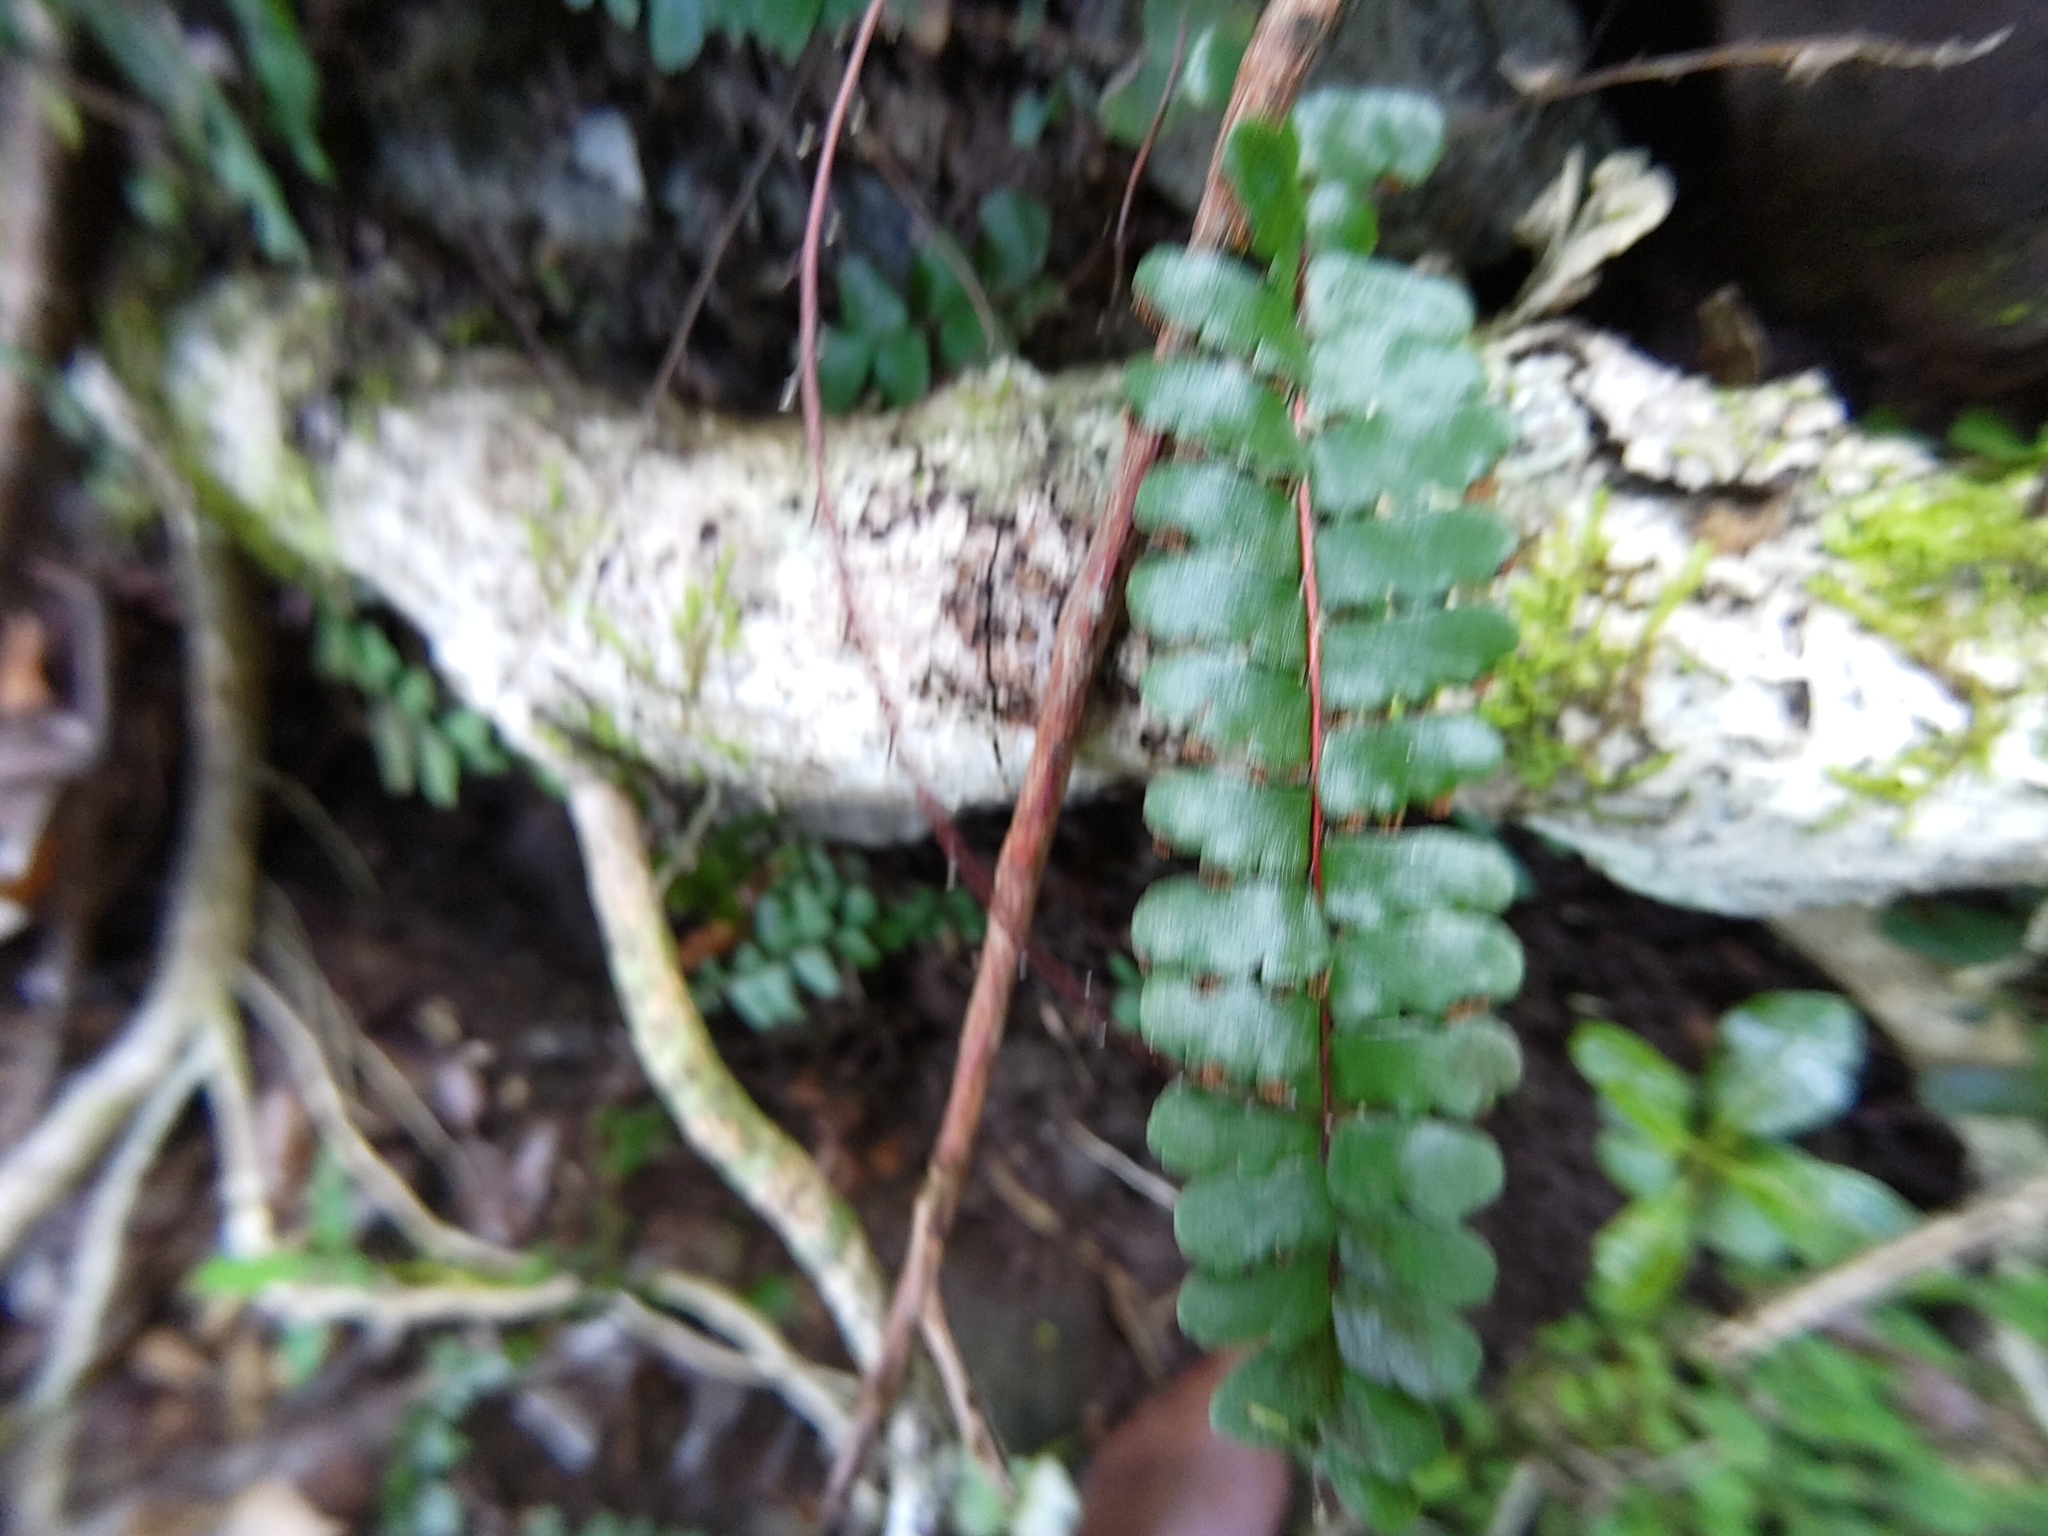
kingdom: Plantae
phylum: Tracheophyta
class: Polypodiopsida
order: Polypodiales
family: Pteridaceae
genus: Adiantum
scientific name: Adiantum rhizophorum
